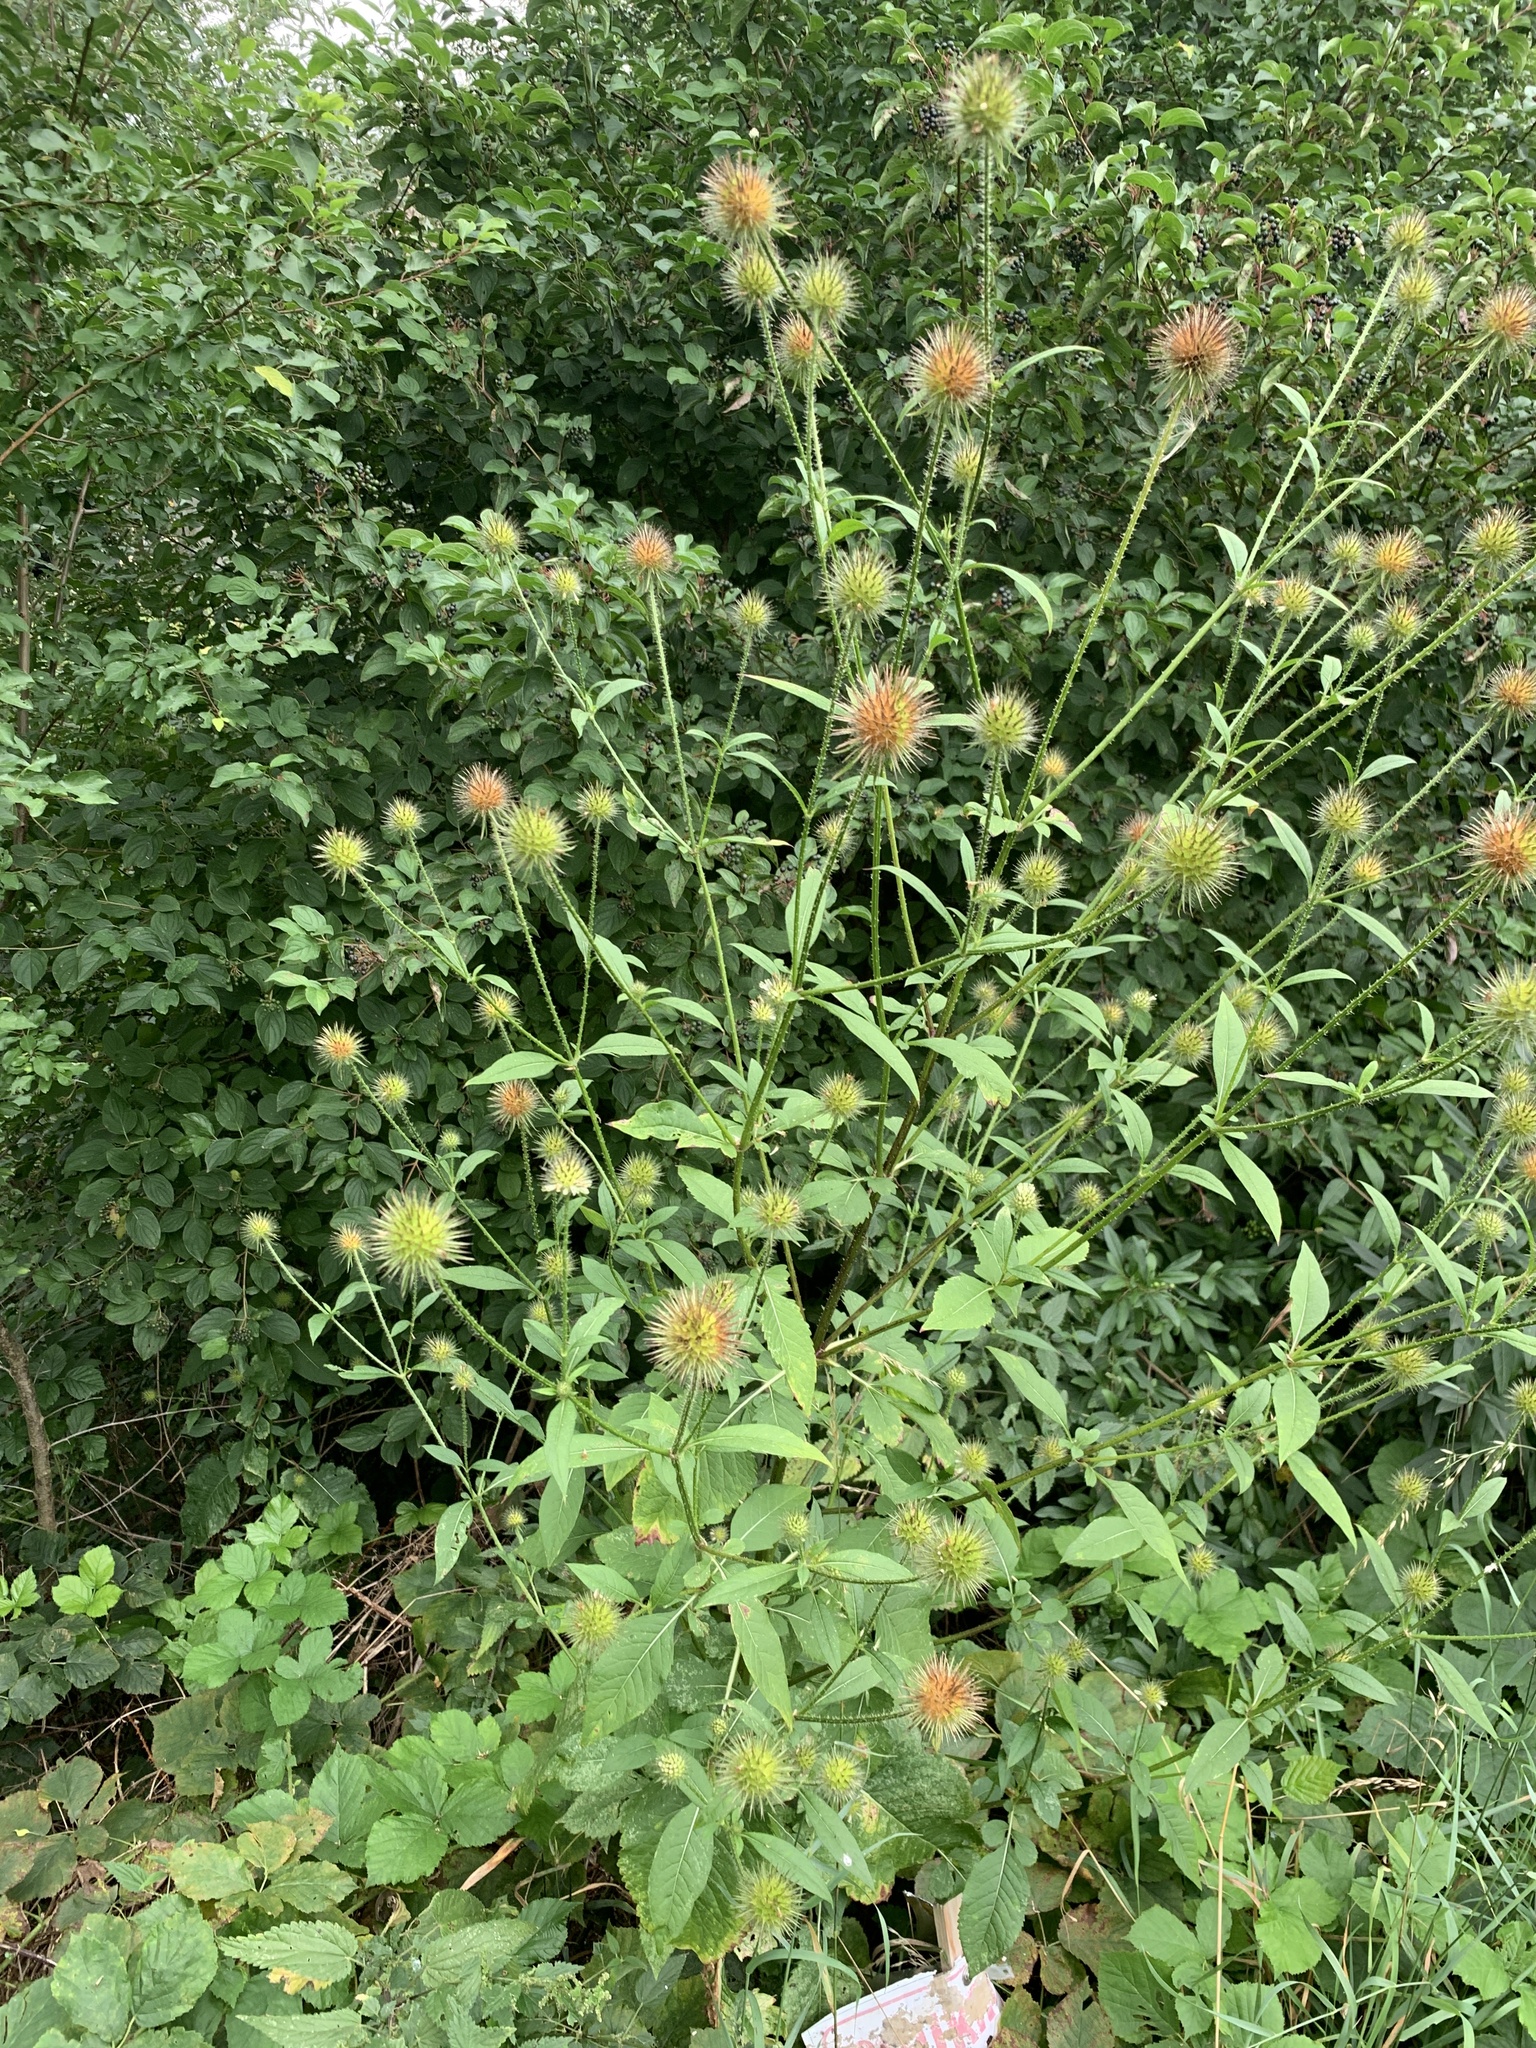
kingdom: Plantae
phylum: Tracheophyta
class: Magnoliopsida
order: Dipsacales
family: Caprifoliaceae
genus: Dipsacus
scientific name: Dipsacus strigosus
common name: Yellow-flowered teasel
